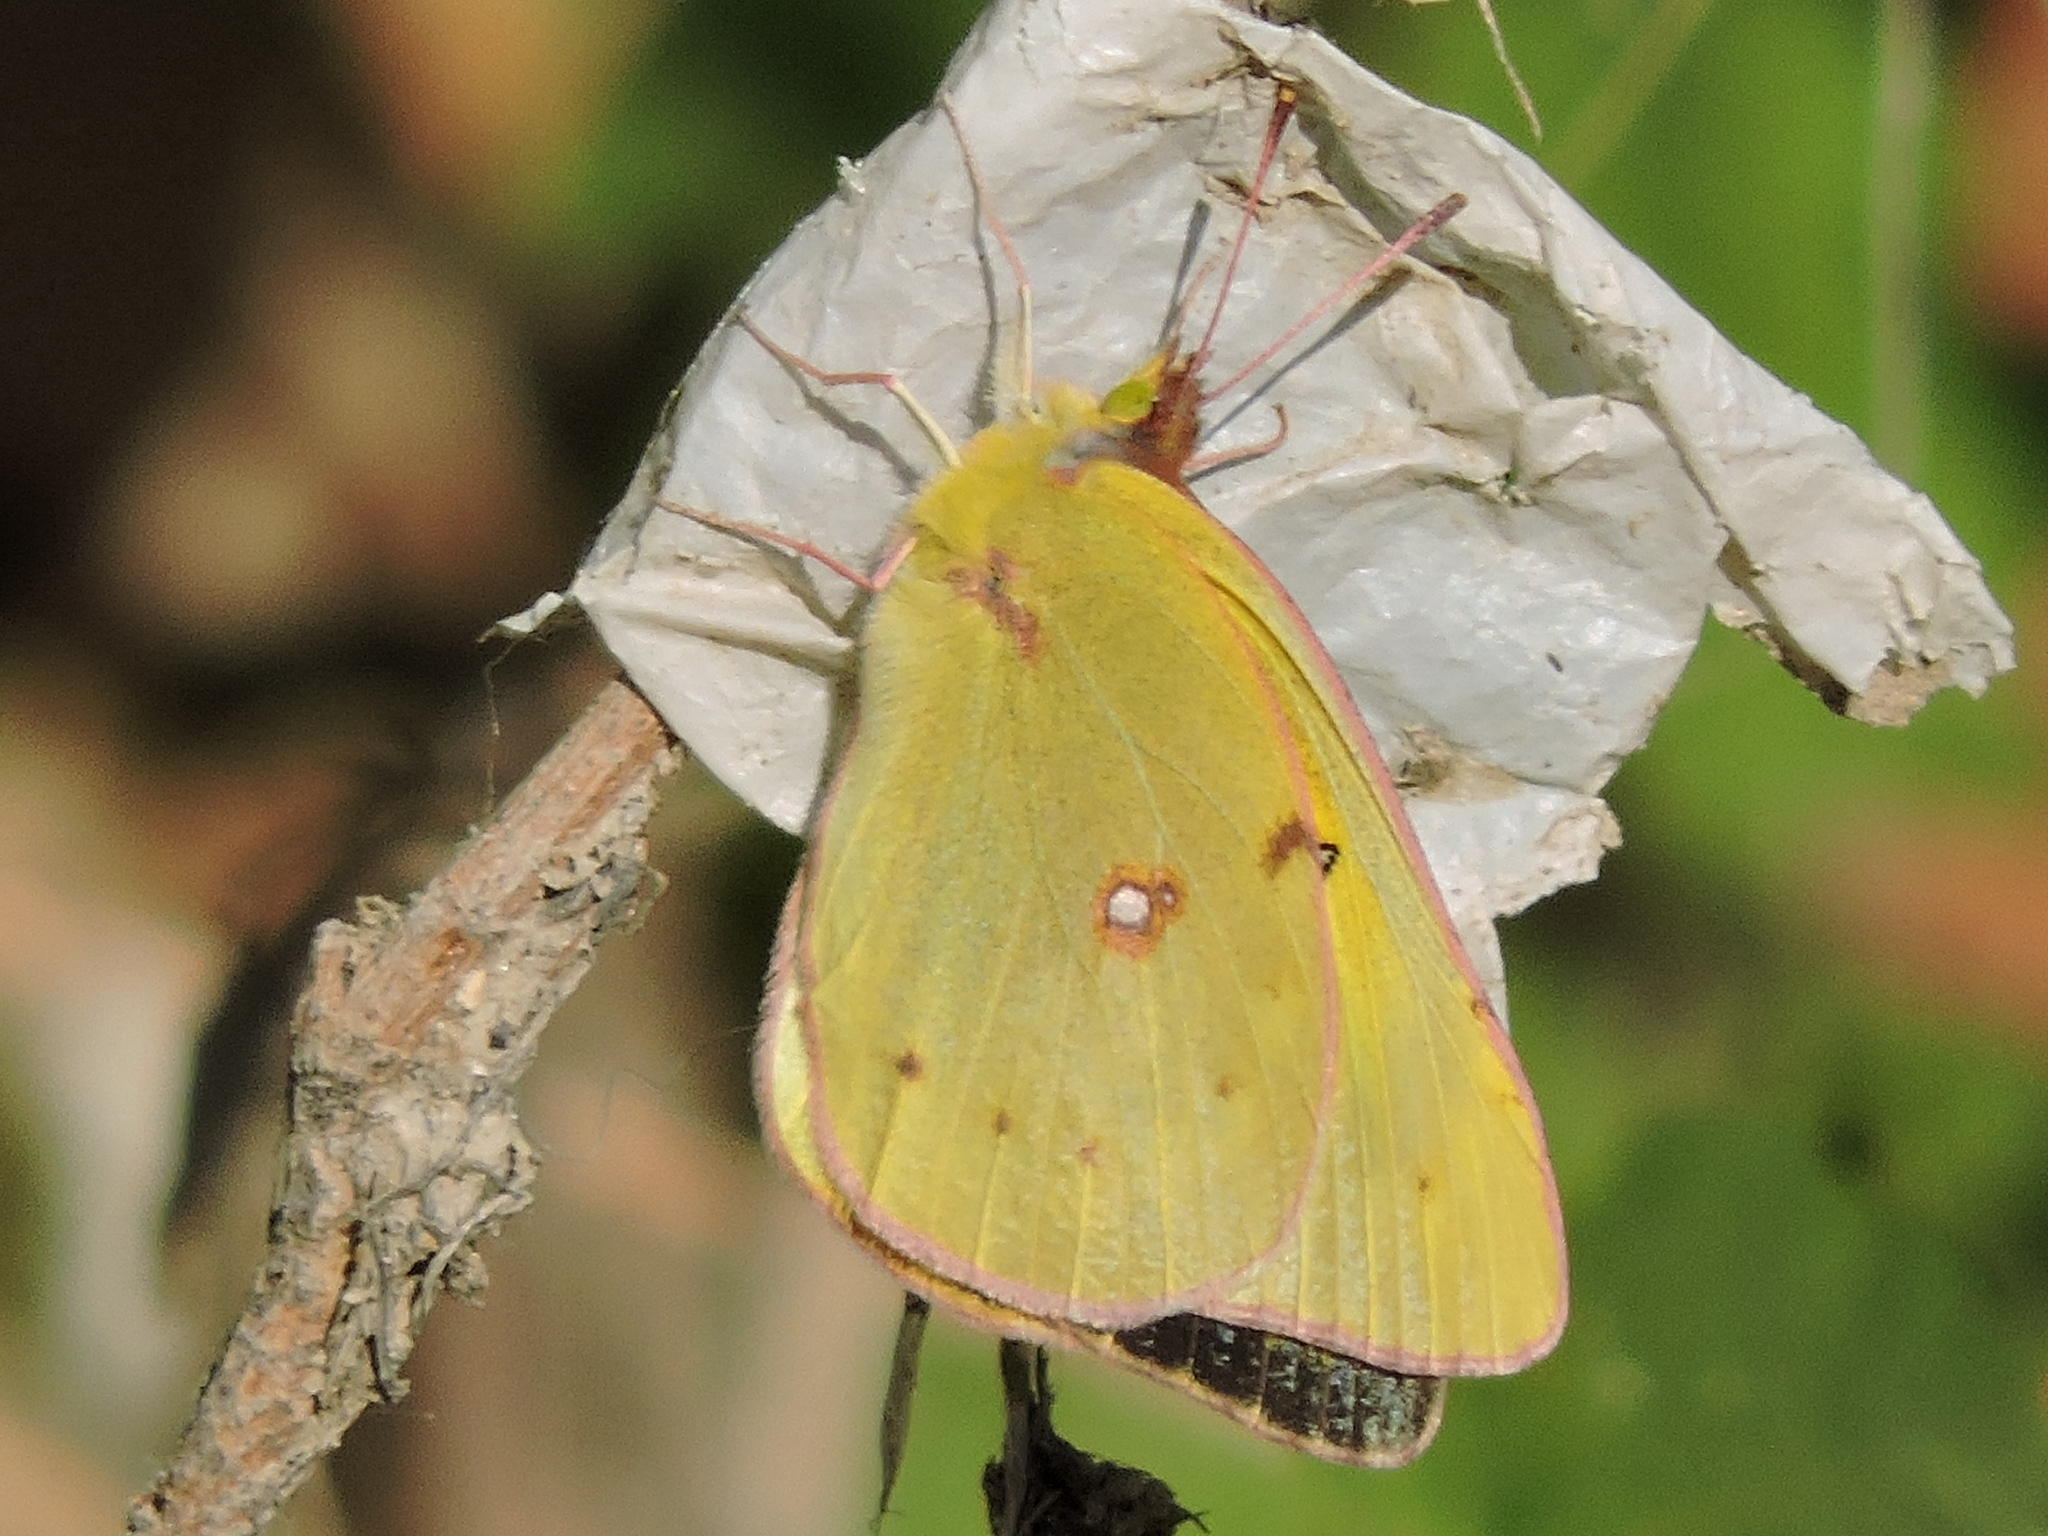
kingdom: Animalia
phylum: Arthropoda
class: Insecta
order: Lepidoptera
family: Pieridae
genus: Colias
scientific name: Colias eurytheme
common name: Alfalfa butterfly
